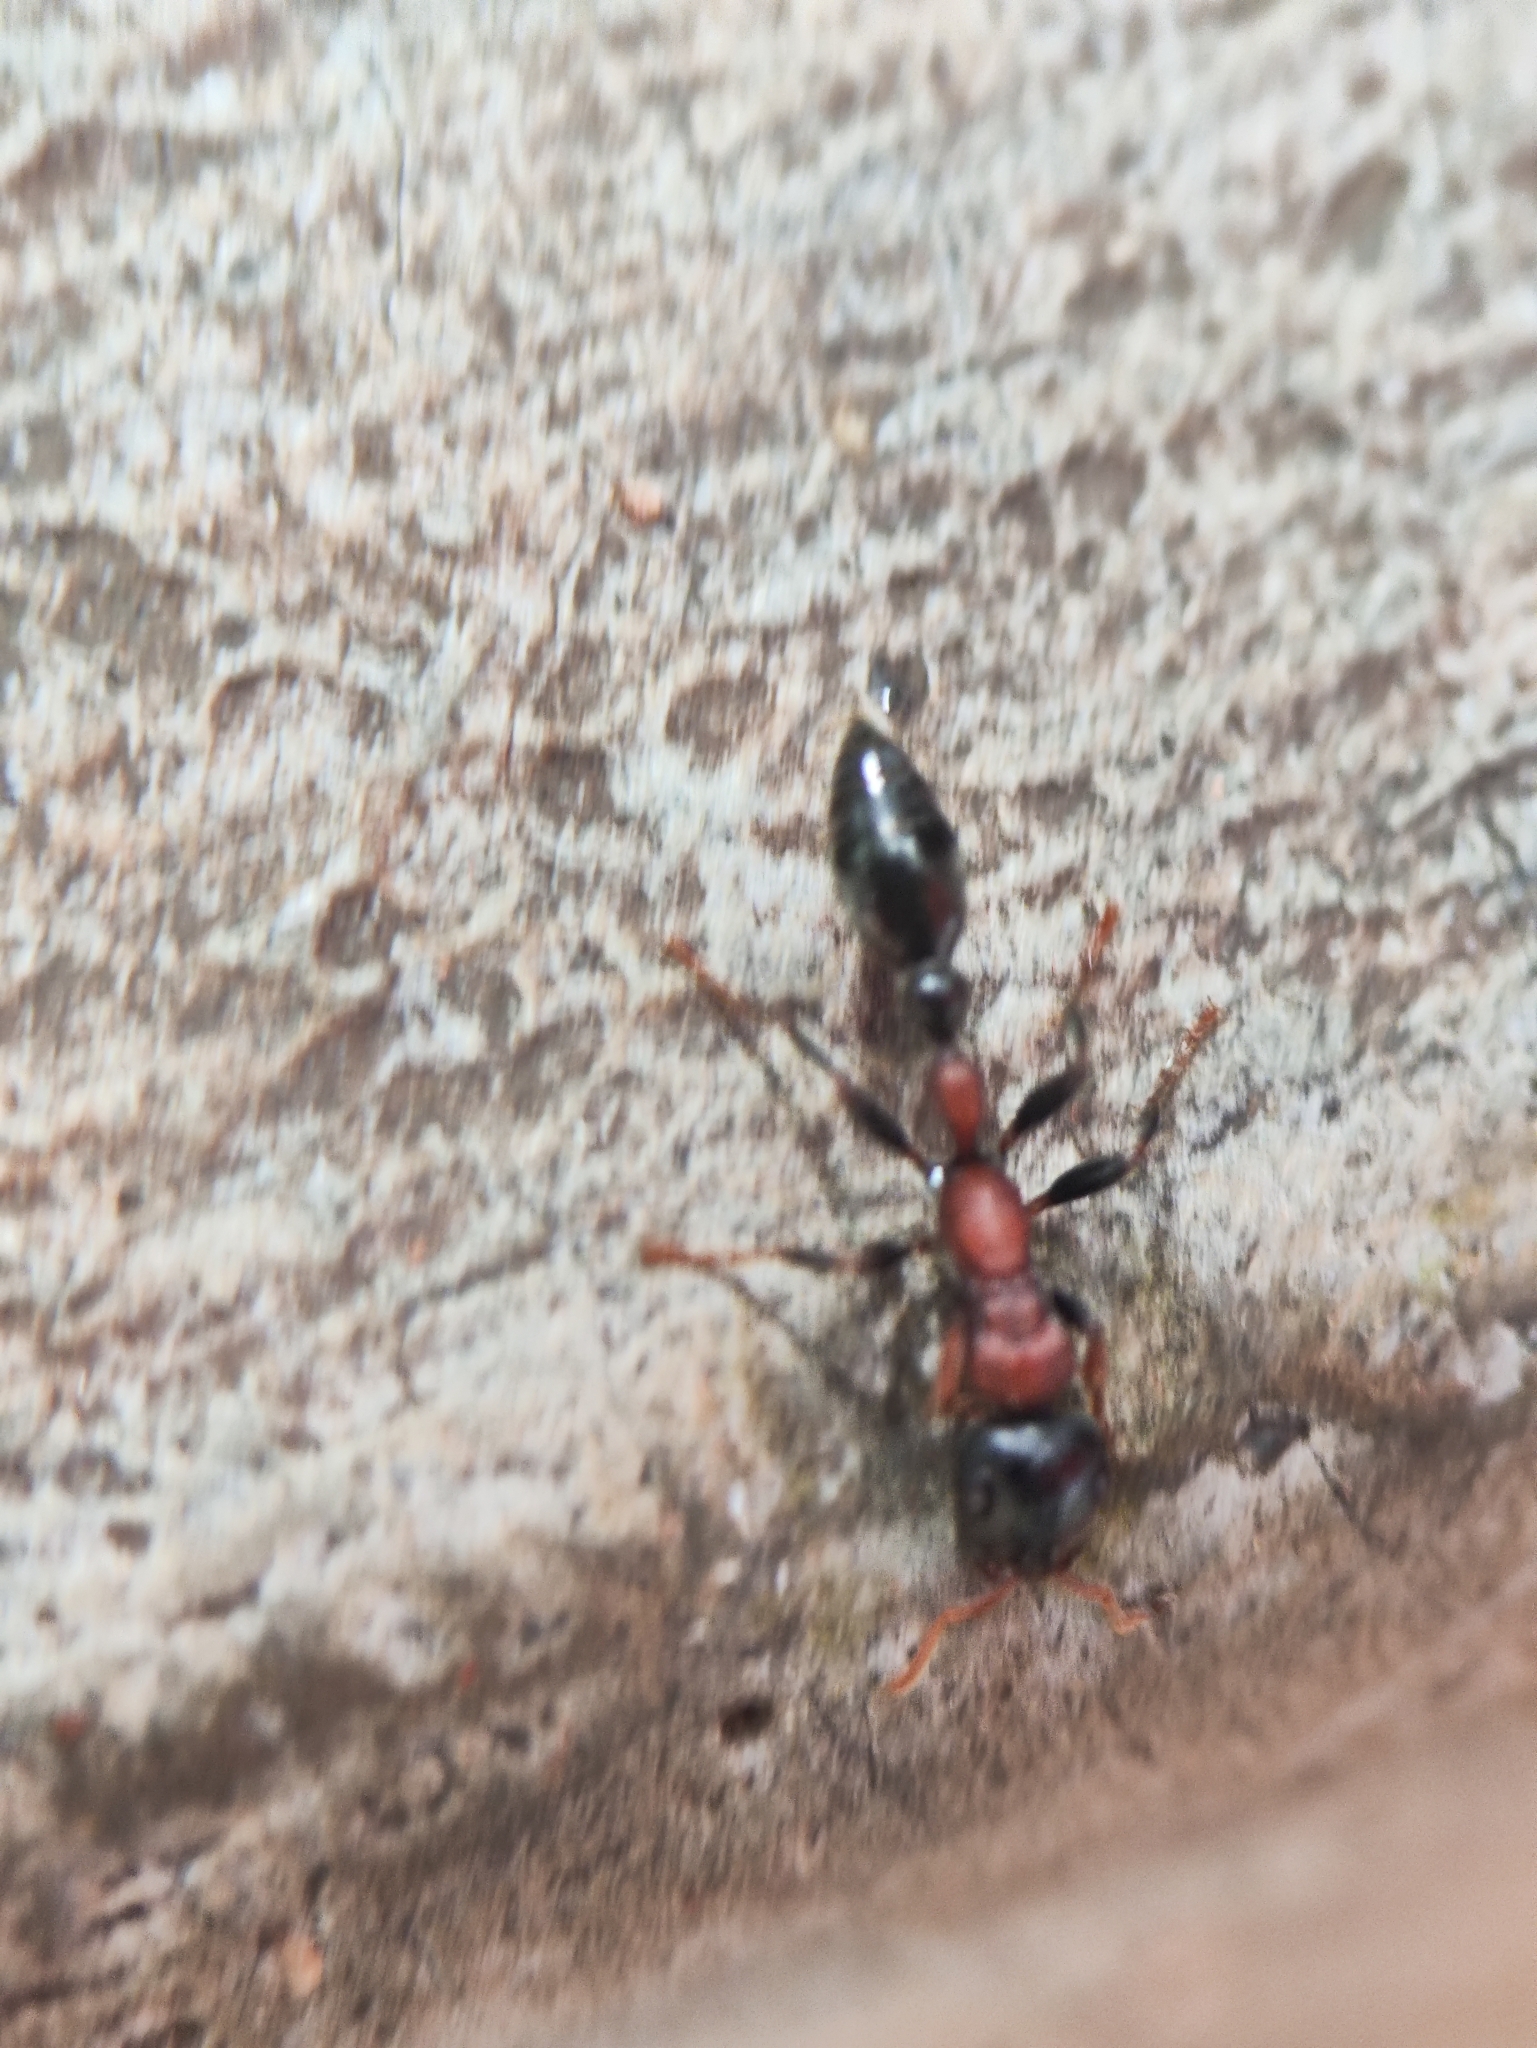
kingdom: Animalia
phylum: Arthropoda
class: Insecta
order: Hymenoptera
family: Formicidae
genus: Tetraponera
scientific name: Tetraponera rufonigra
